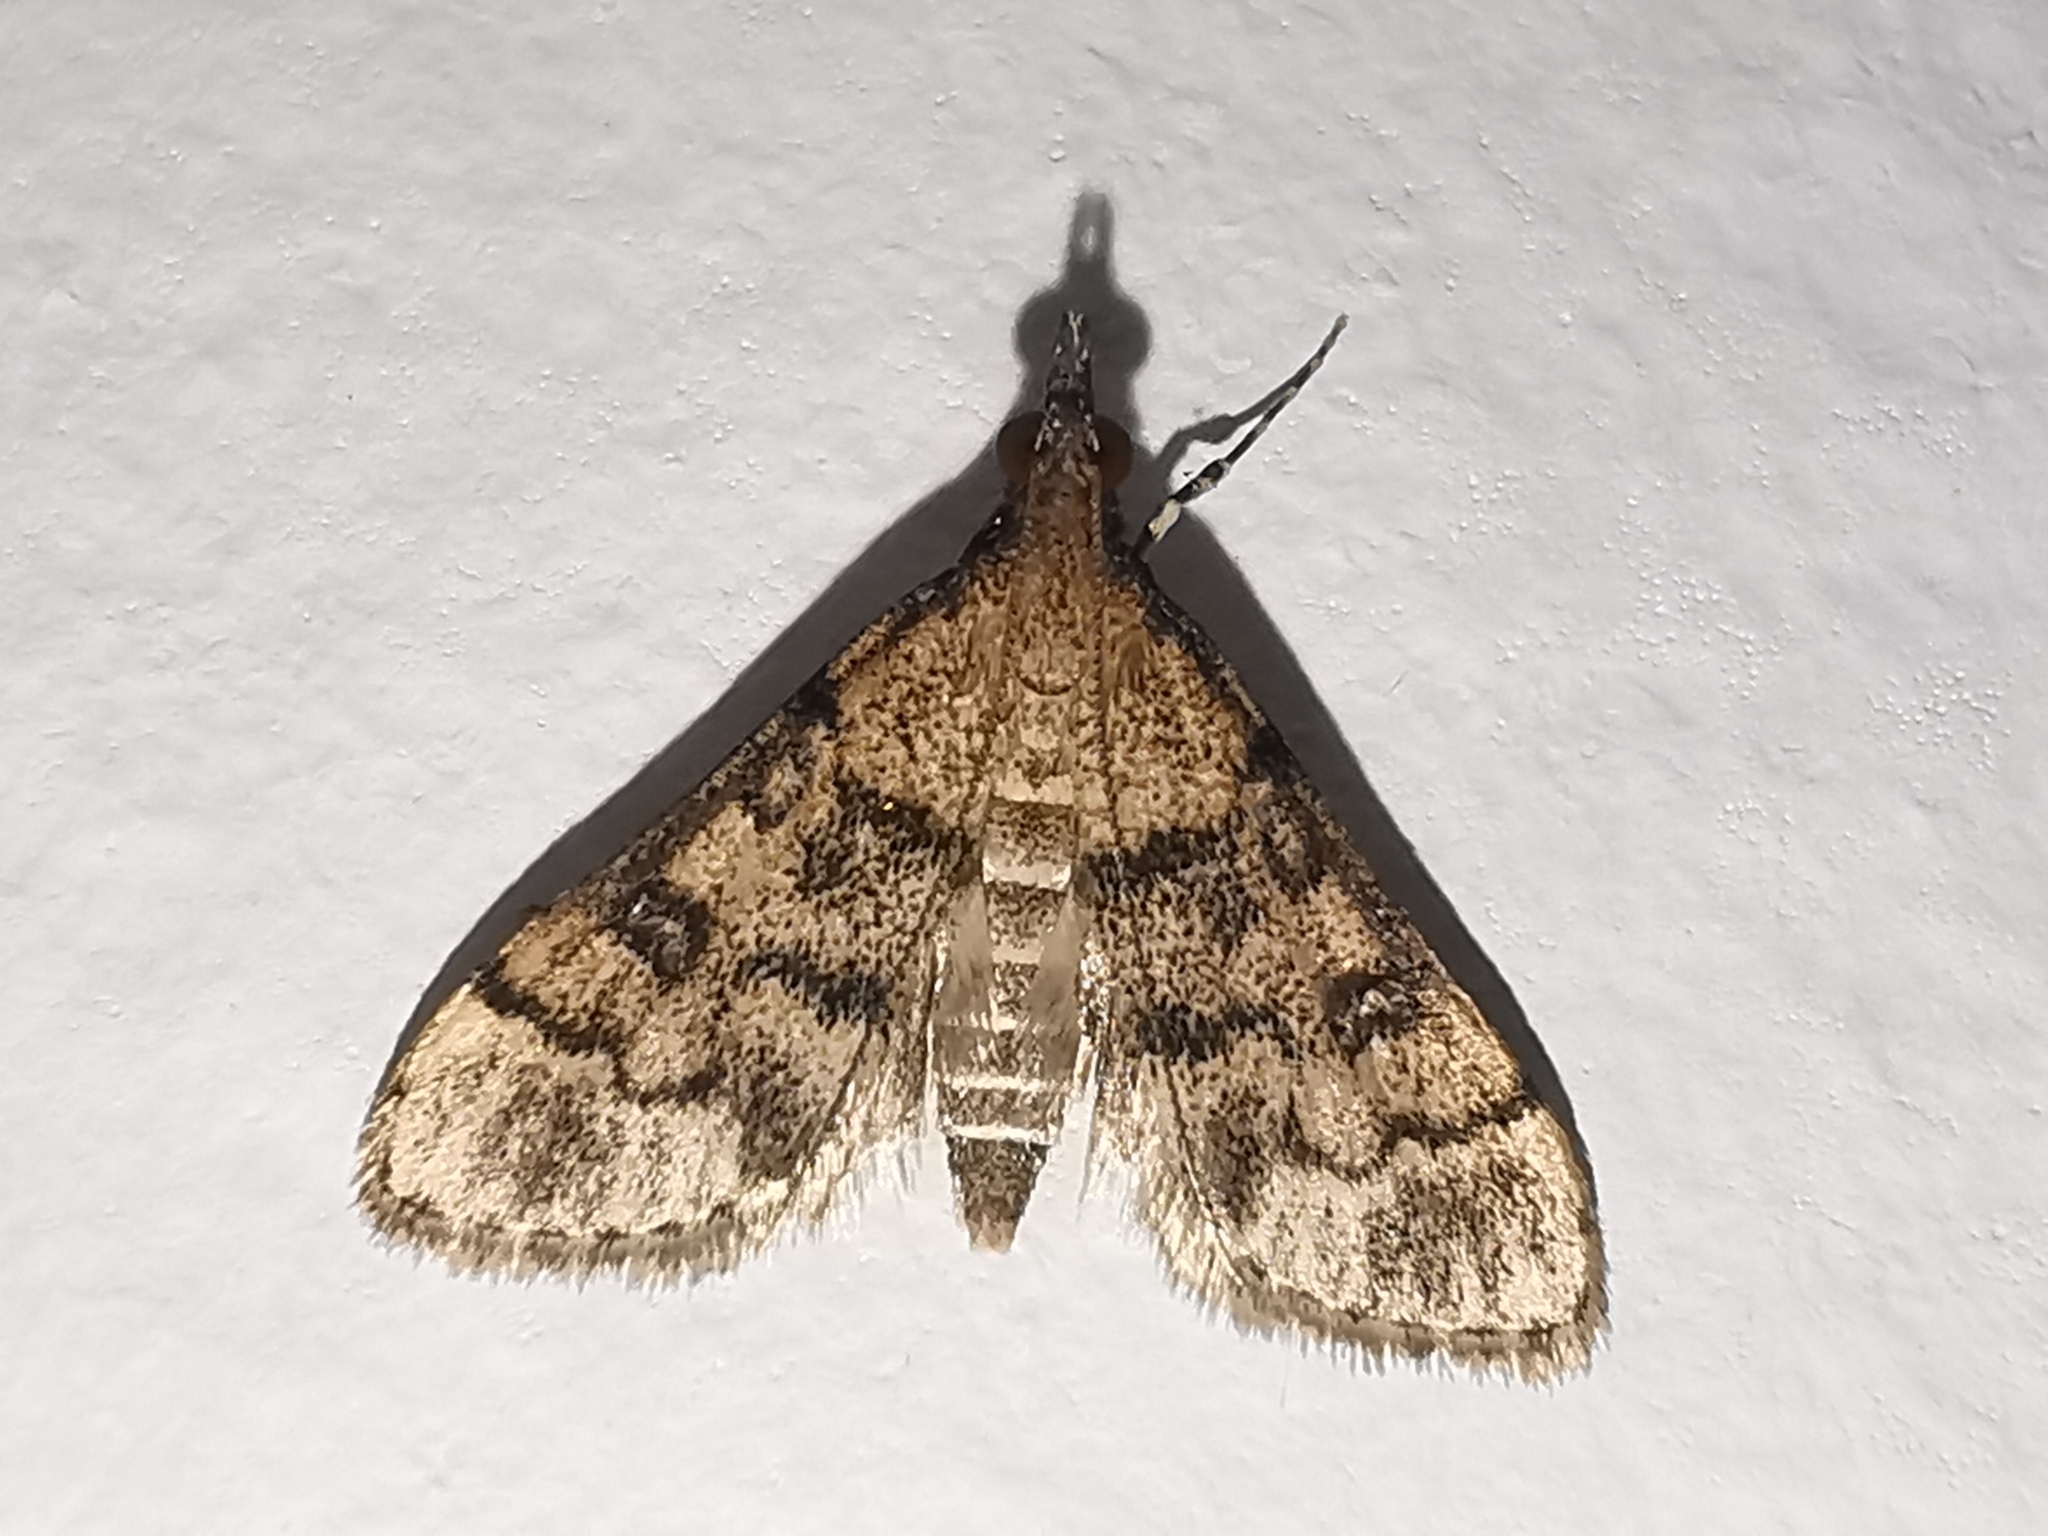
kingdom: Animalia
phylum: Arthropoda
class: Insecta
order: Lepidoptera
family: Crambidae
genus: Metasia
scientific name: Metasia ophialis
